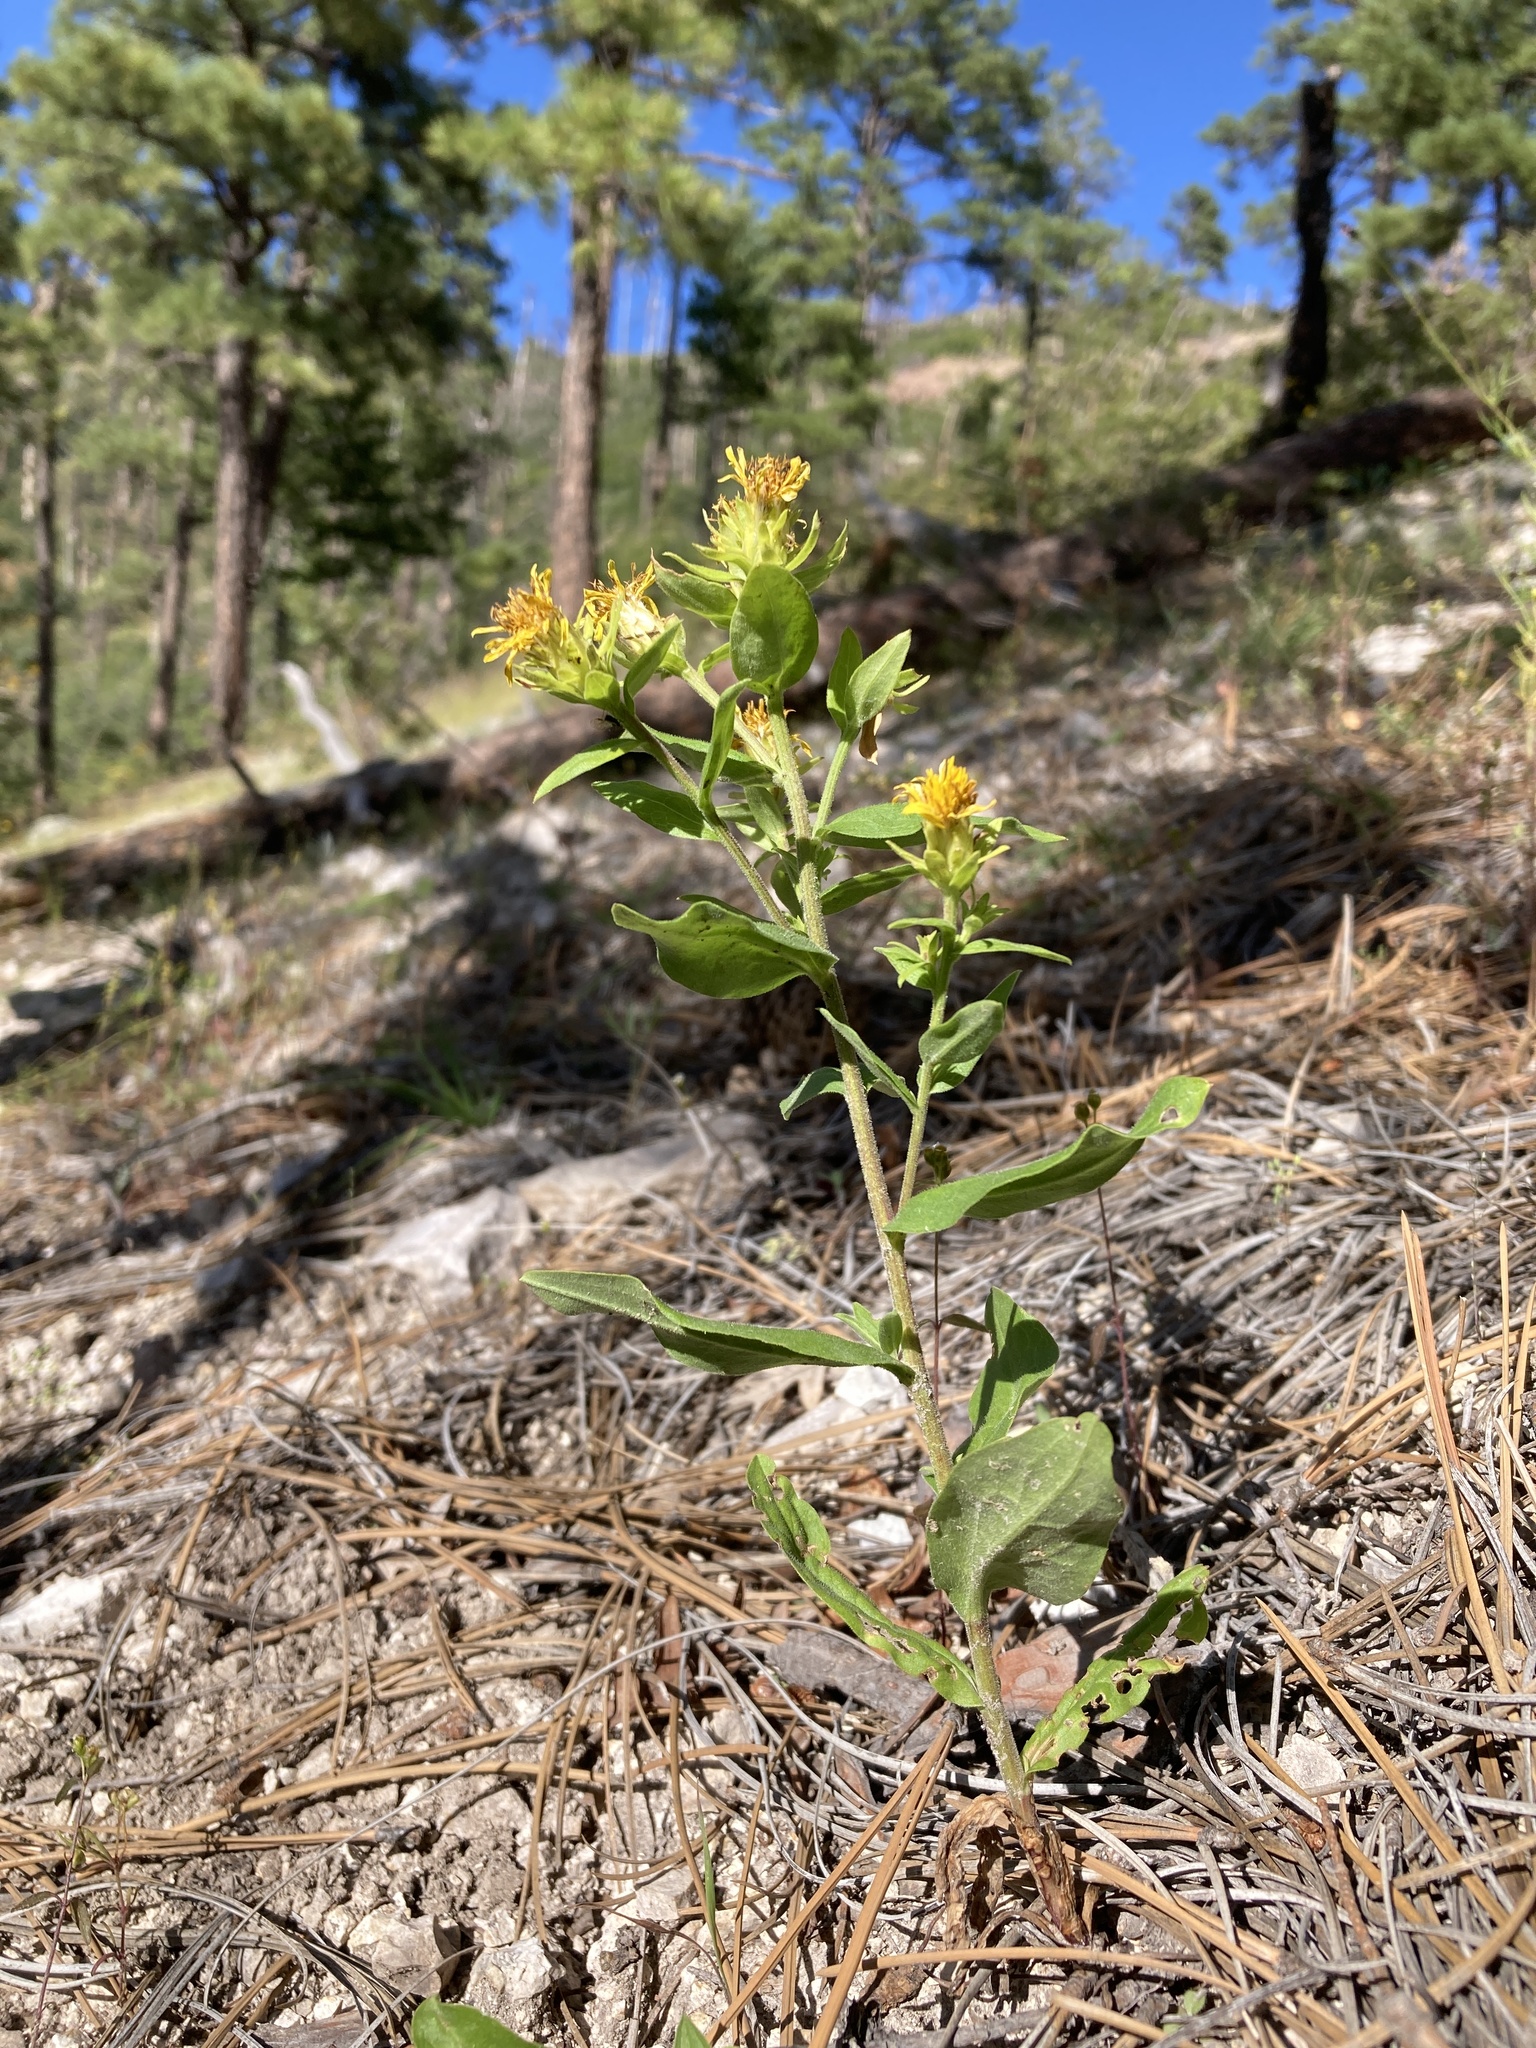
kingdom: Plantae
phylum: Tracheophyta
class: Magnoliopsida
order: Asterales
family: Asteraceae
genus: Oreochrysum
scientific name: Oreochrysum parryi
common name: Parry's goldenweed
